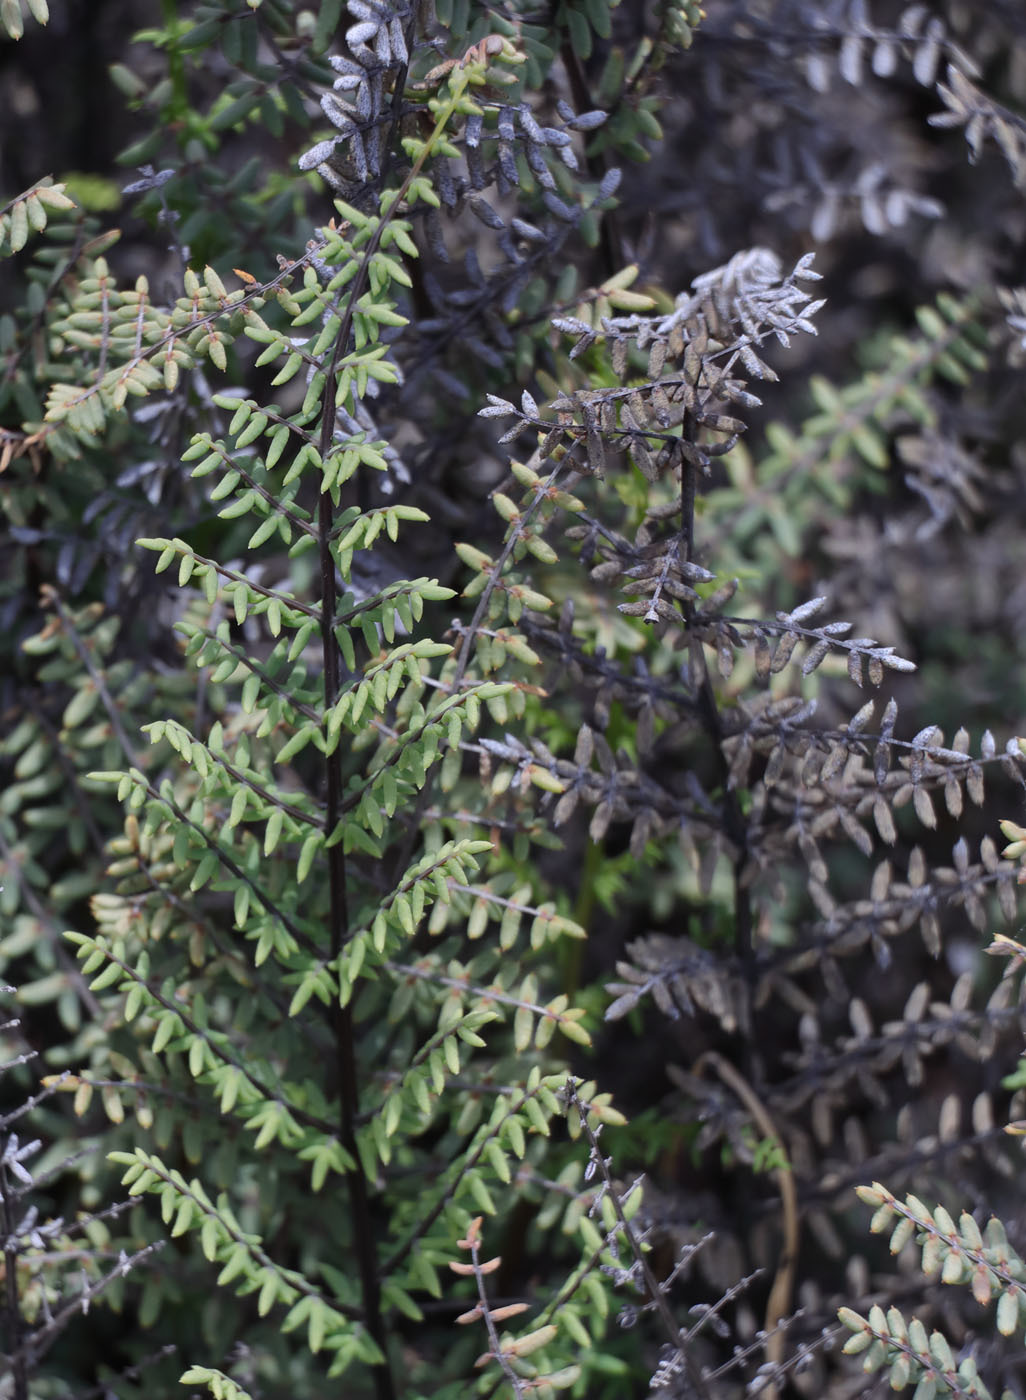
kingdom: Plantae
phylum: Tracheophyta
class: Polypodiopsida
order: Polypodiales
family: Pteridaceae
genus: Pellaea
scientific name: Pellaea mucronata
